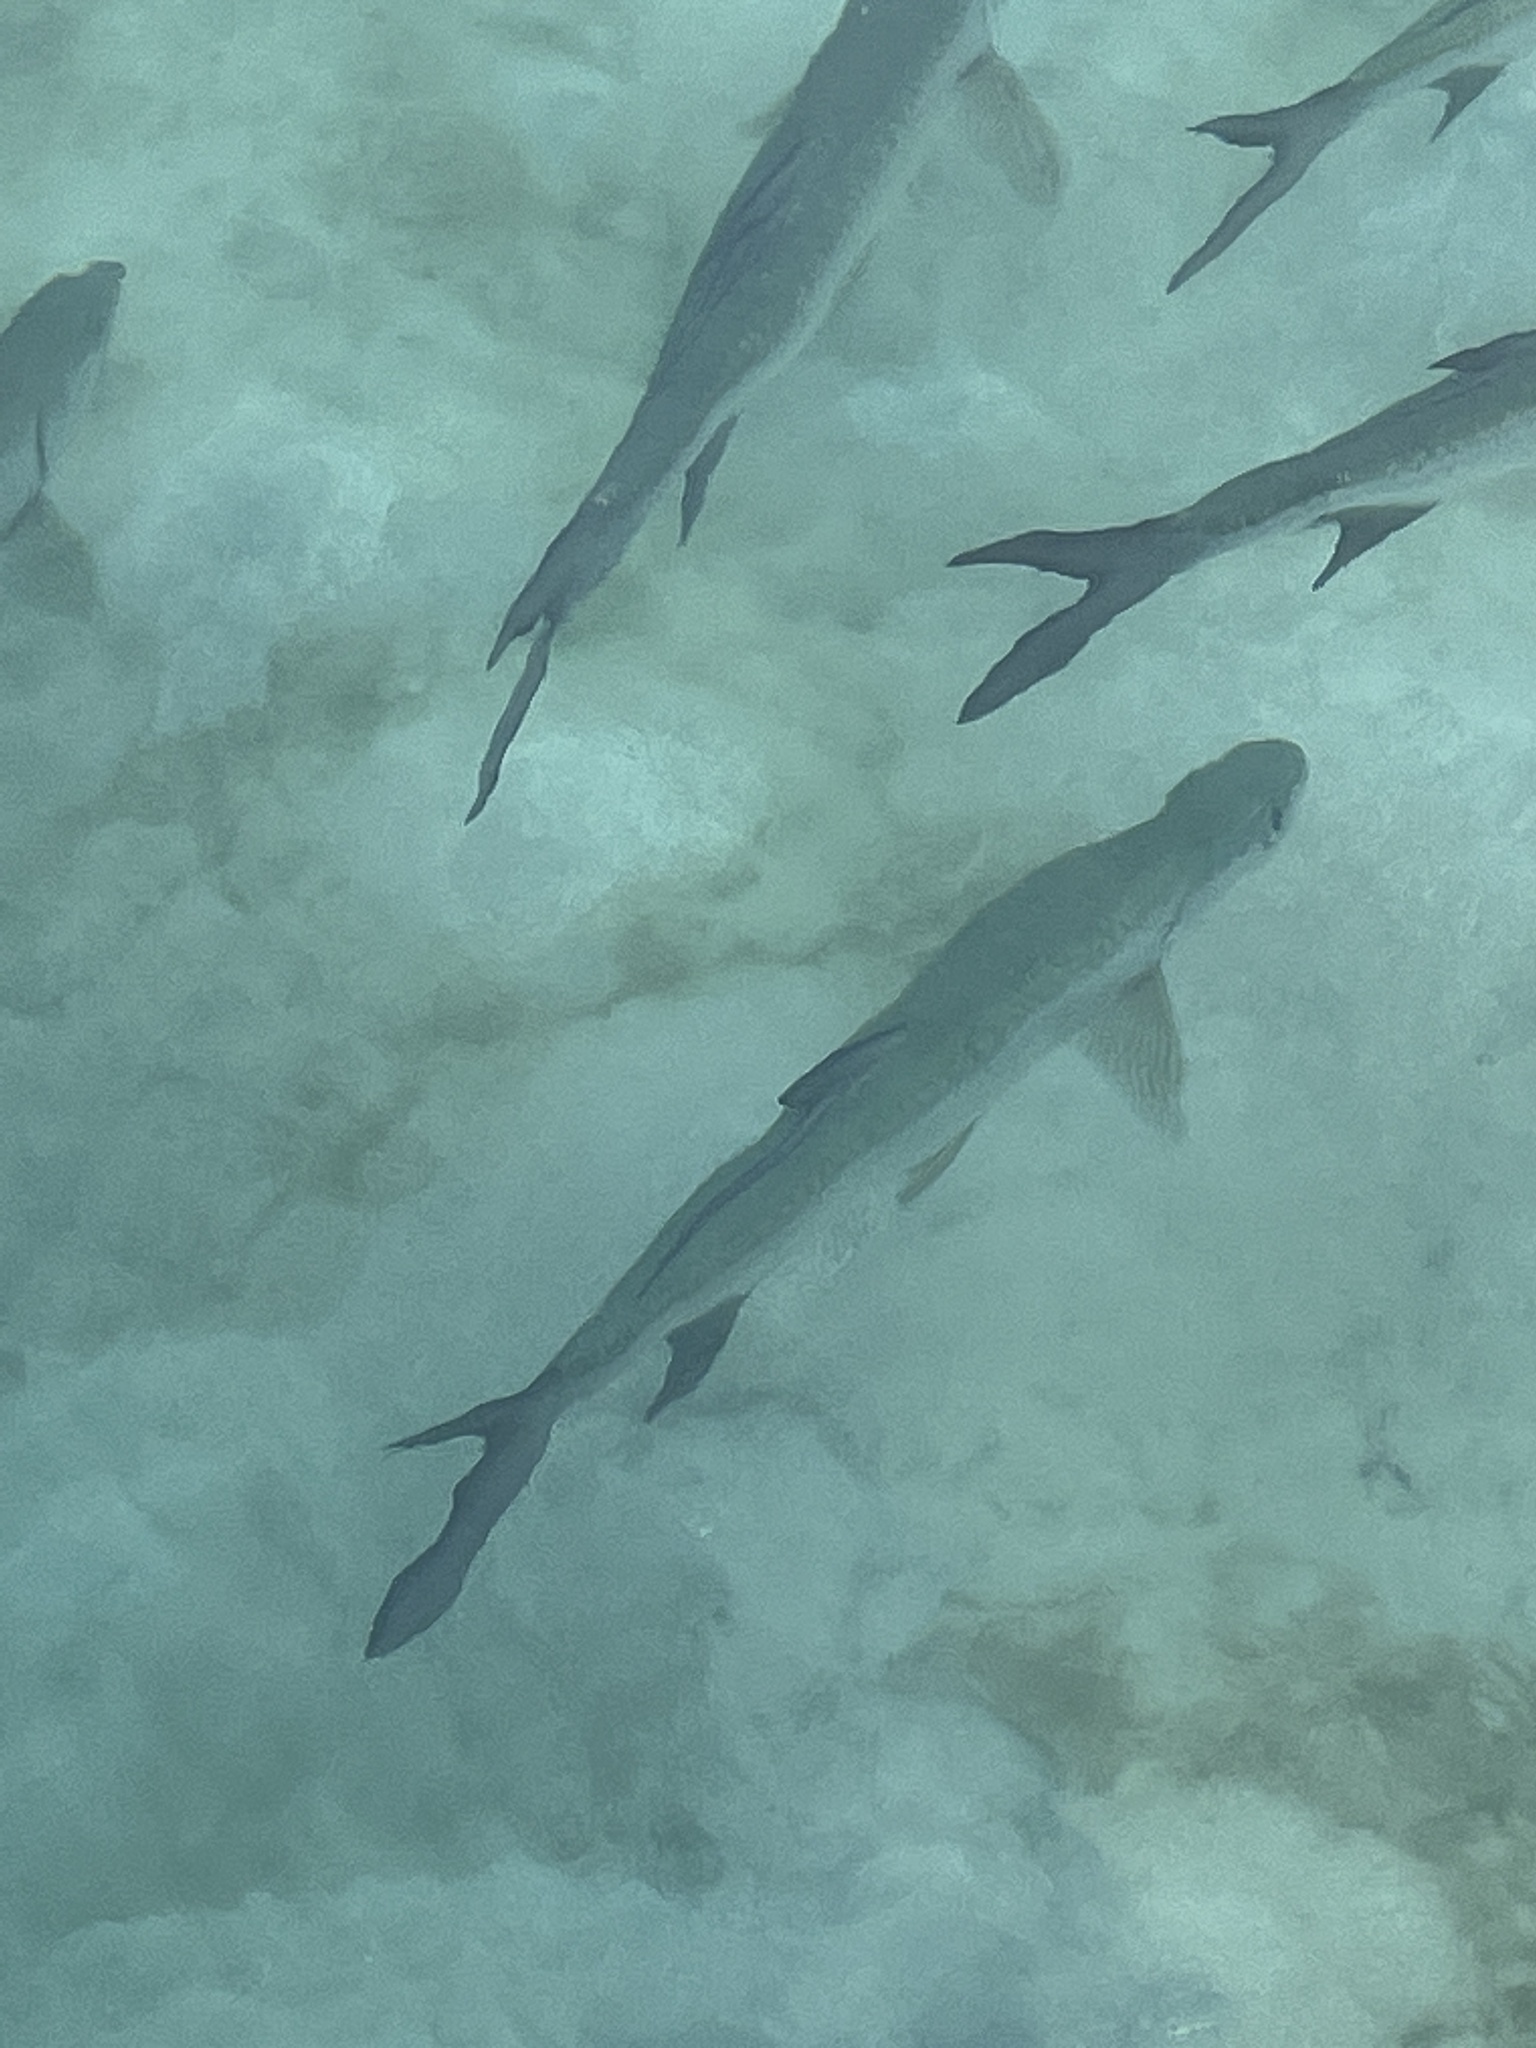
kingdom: Animalia
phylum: Chordata
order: Elopiformes
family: Megalopidae
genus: Megalops
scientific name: Megalops atlanticus
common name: Tarpon
